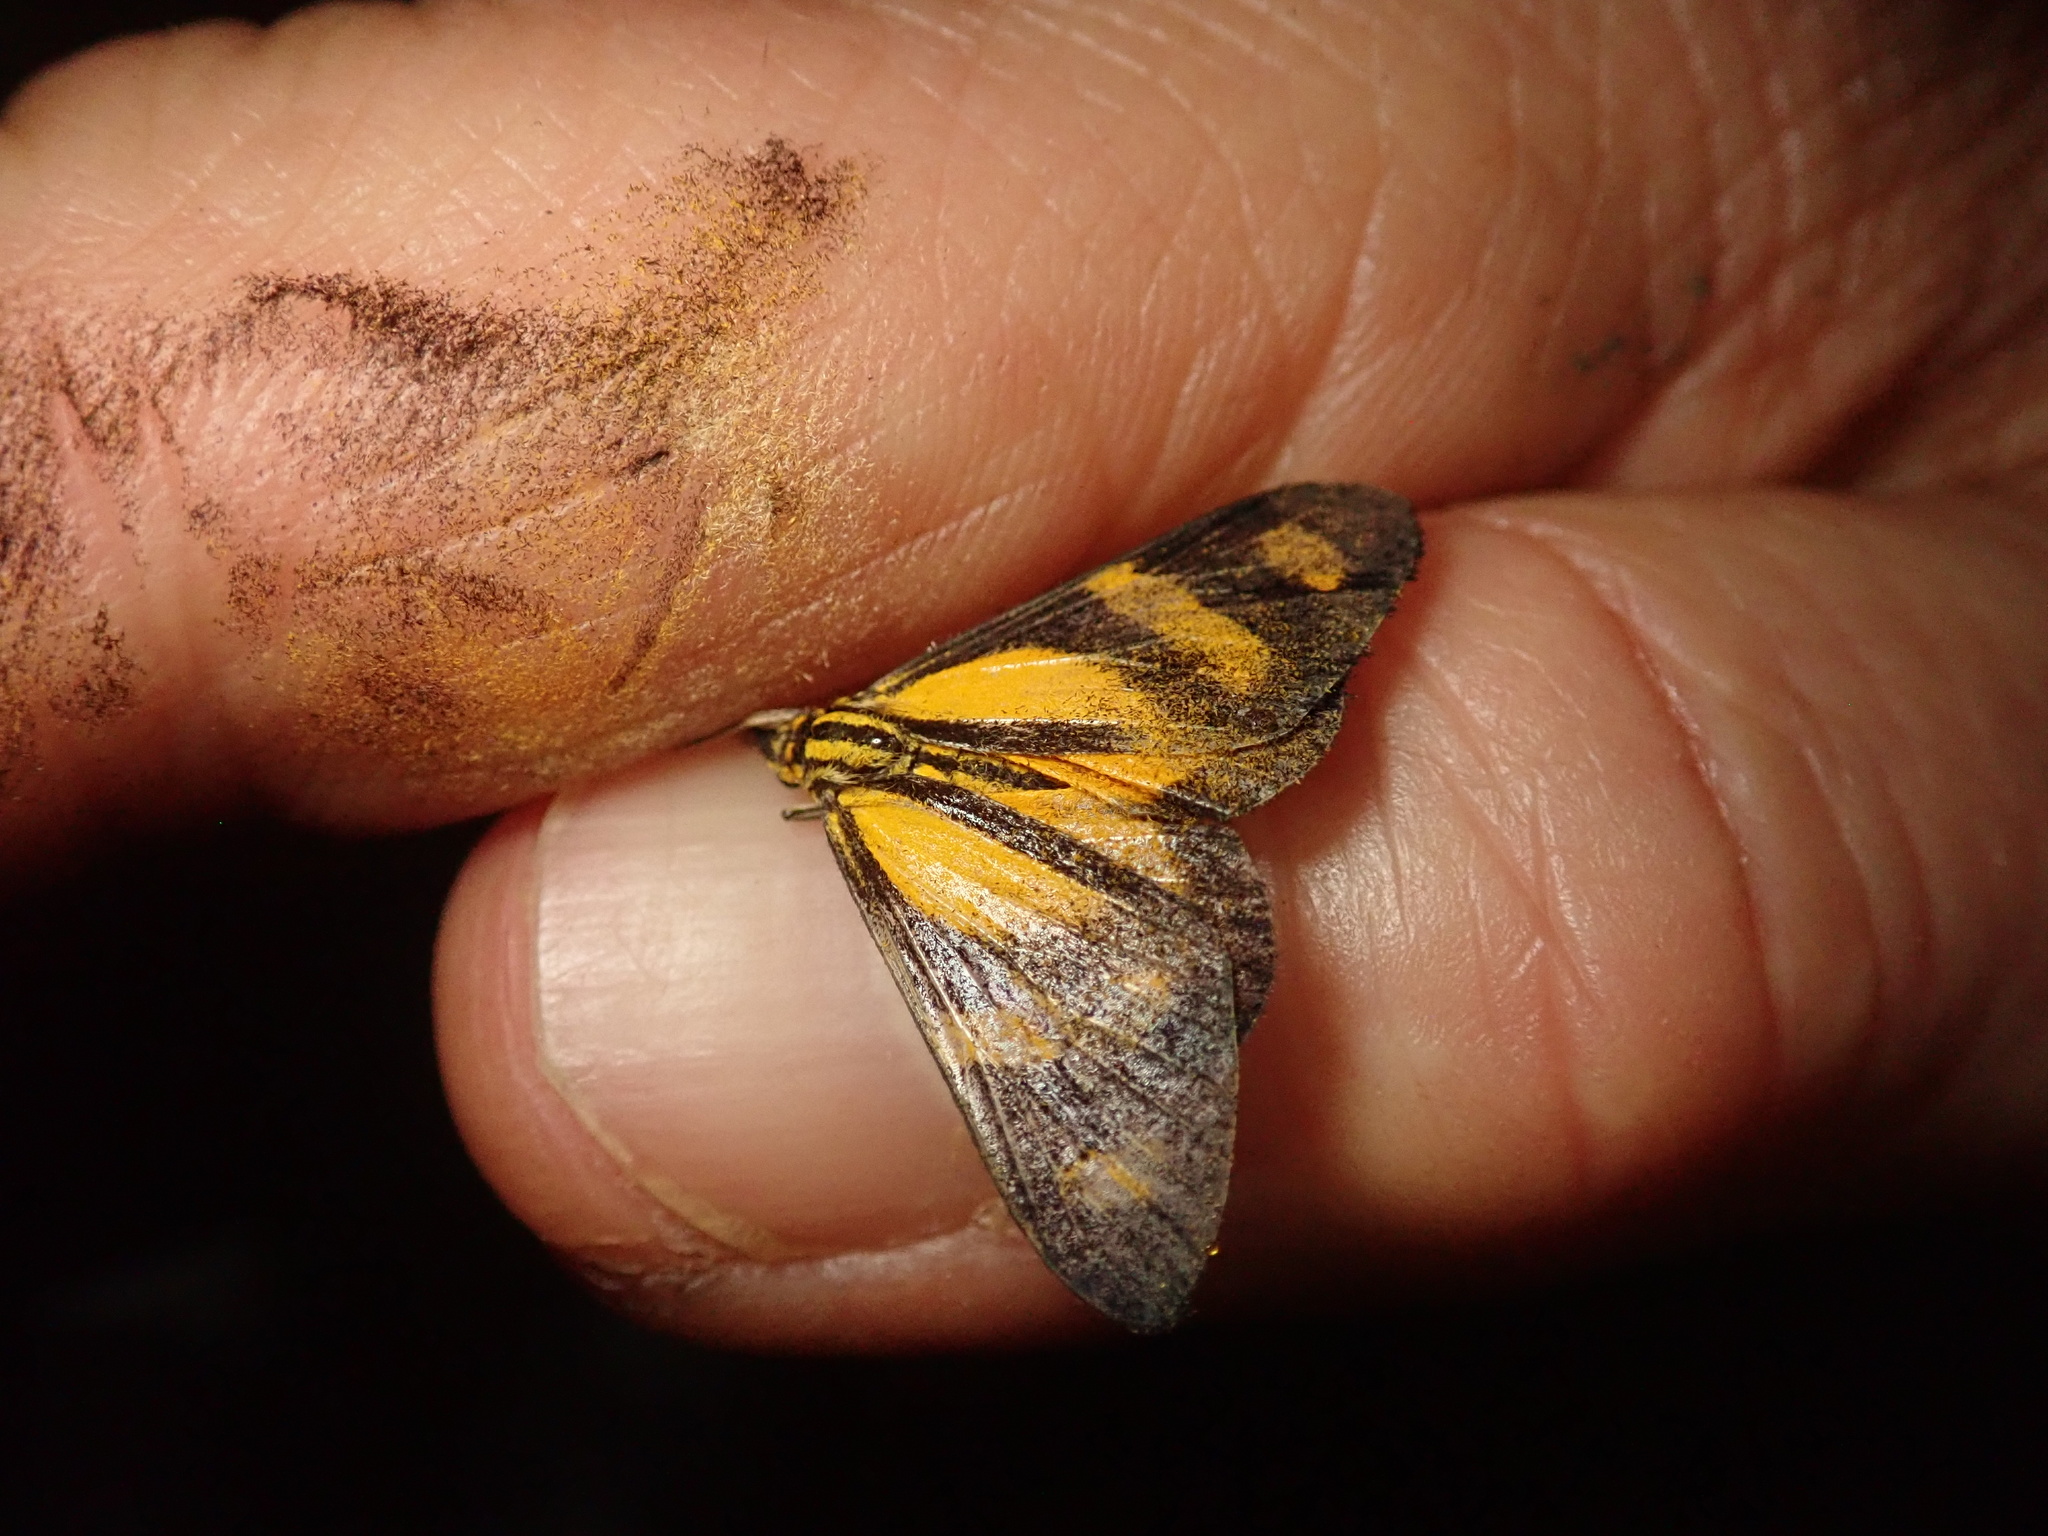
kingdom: Animalia
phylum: Arthropoda
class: Insecta
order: Lepidoptera
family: Notodontidae
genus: Phaeochlaena
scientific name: Phaeochlaena costaricensis
